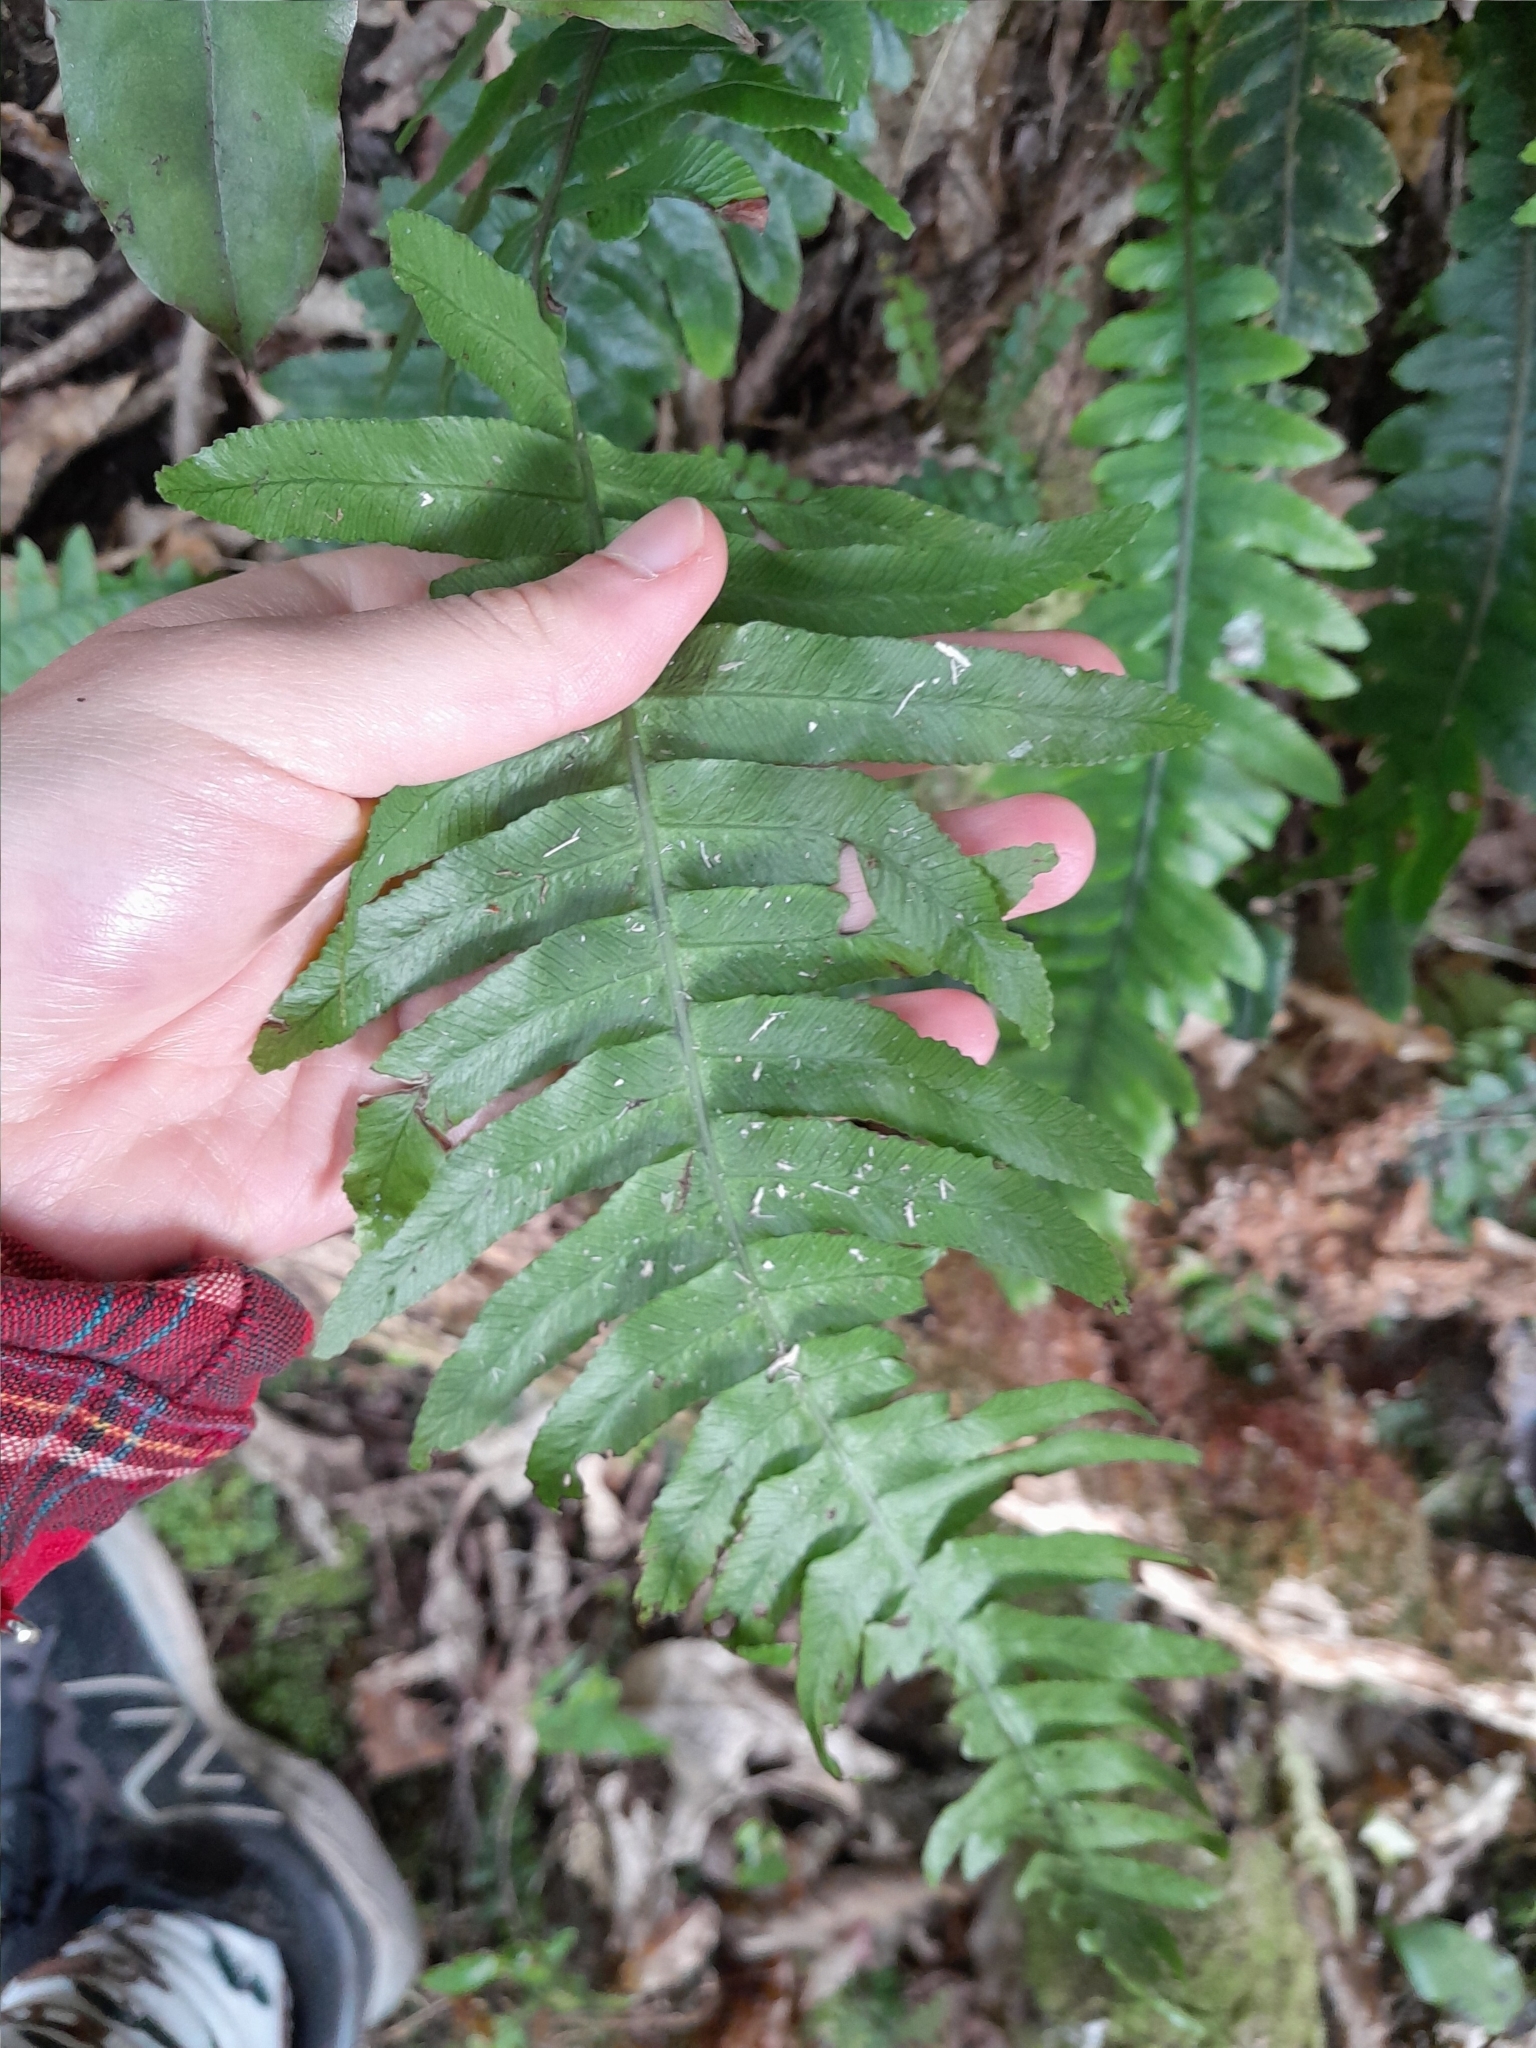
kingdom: Plantae
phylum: Tracheophyta
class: Polypodiopsida
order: Polypodiales
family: Blechnaceae
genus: Austroblechnum
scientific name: Austroblechnum lanceolatum
